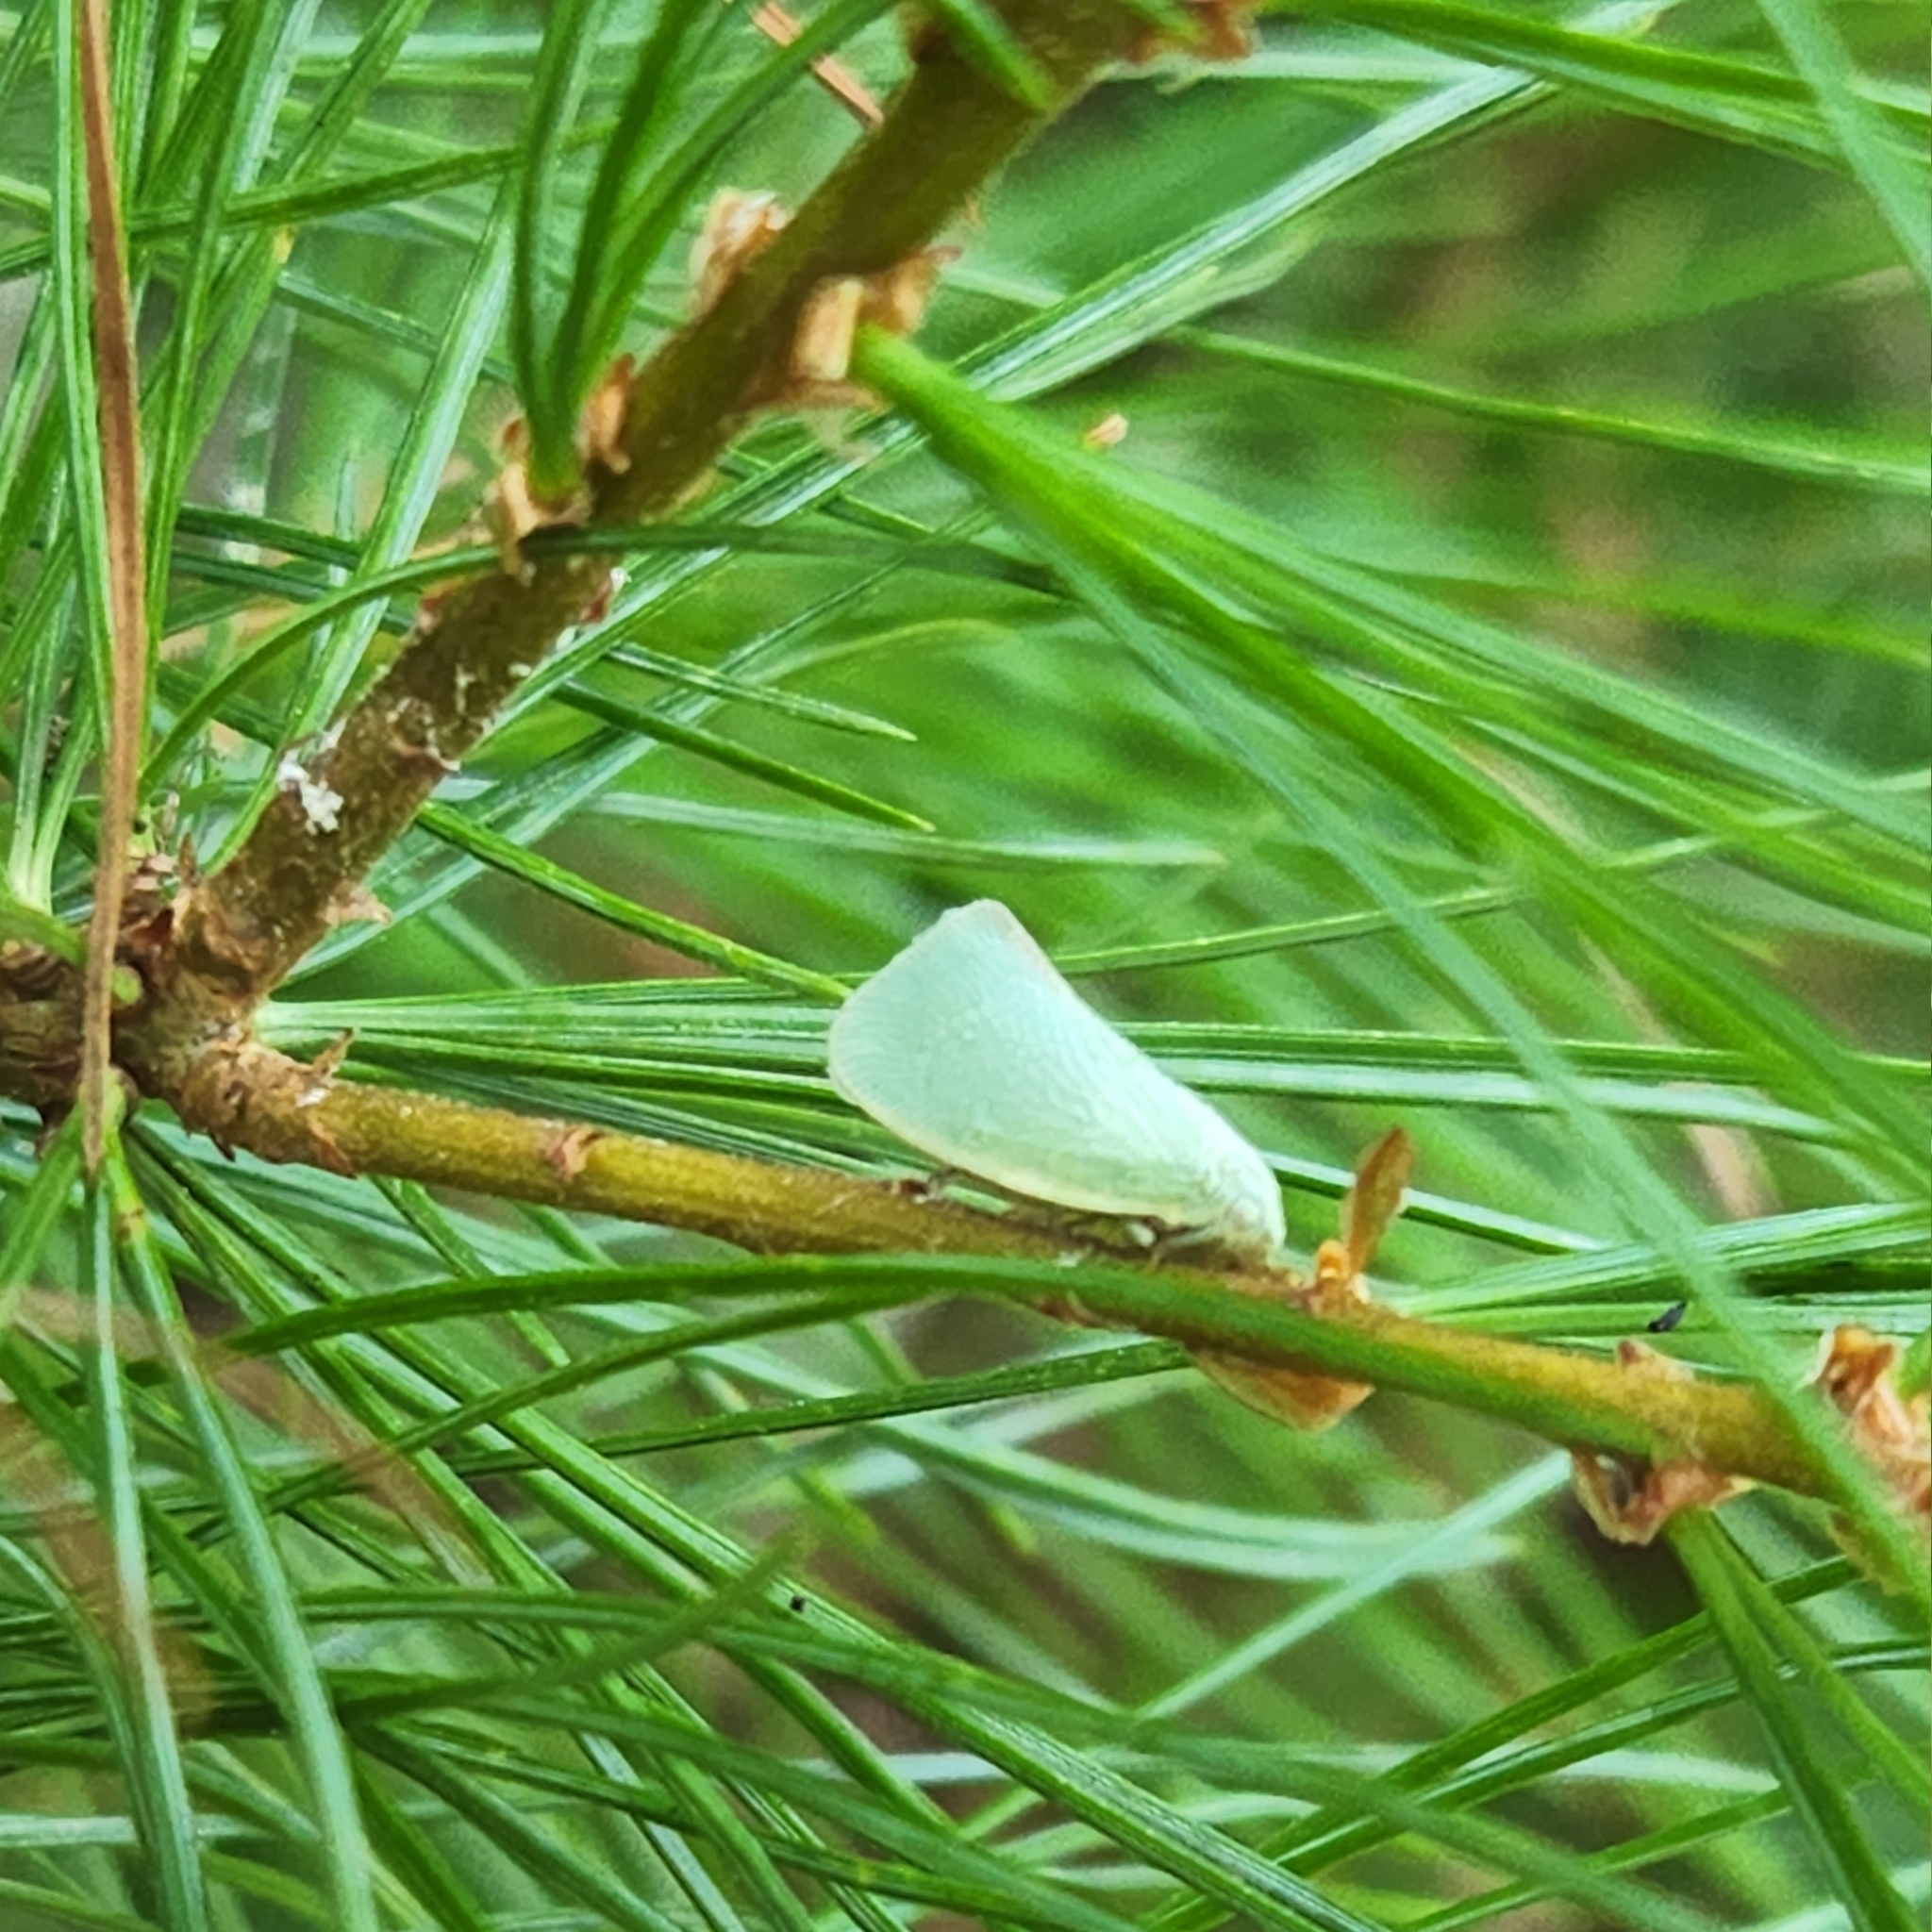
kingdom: Animalia
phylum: Arthropoda
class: Insecta
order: Hemiptera
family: Flatidae
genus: Flatormenis
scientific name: Flatormenis proxima
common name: Northern flatid planthopper
